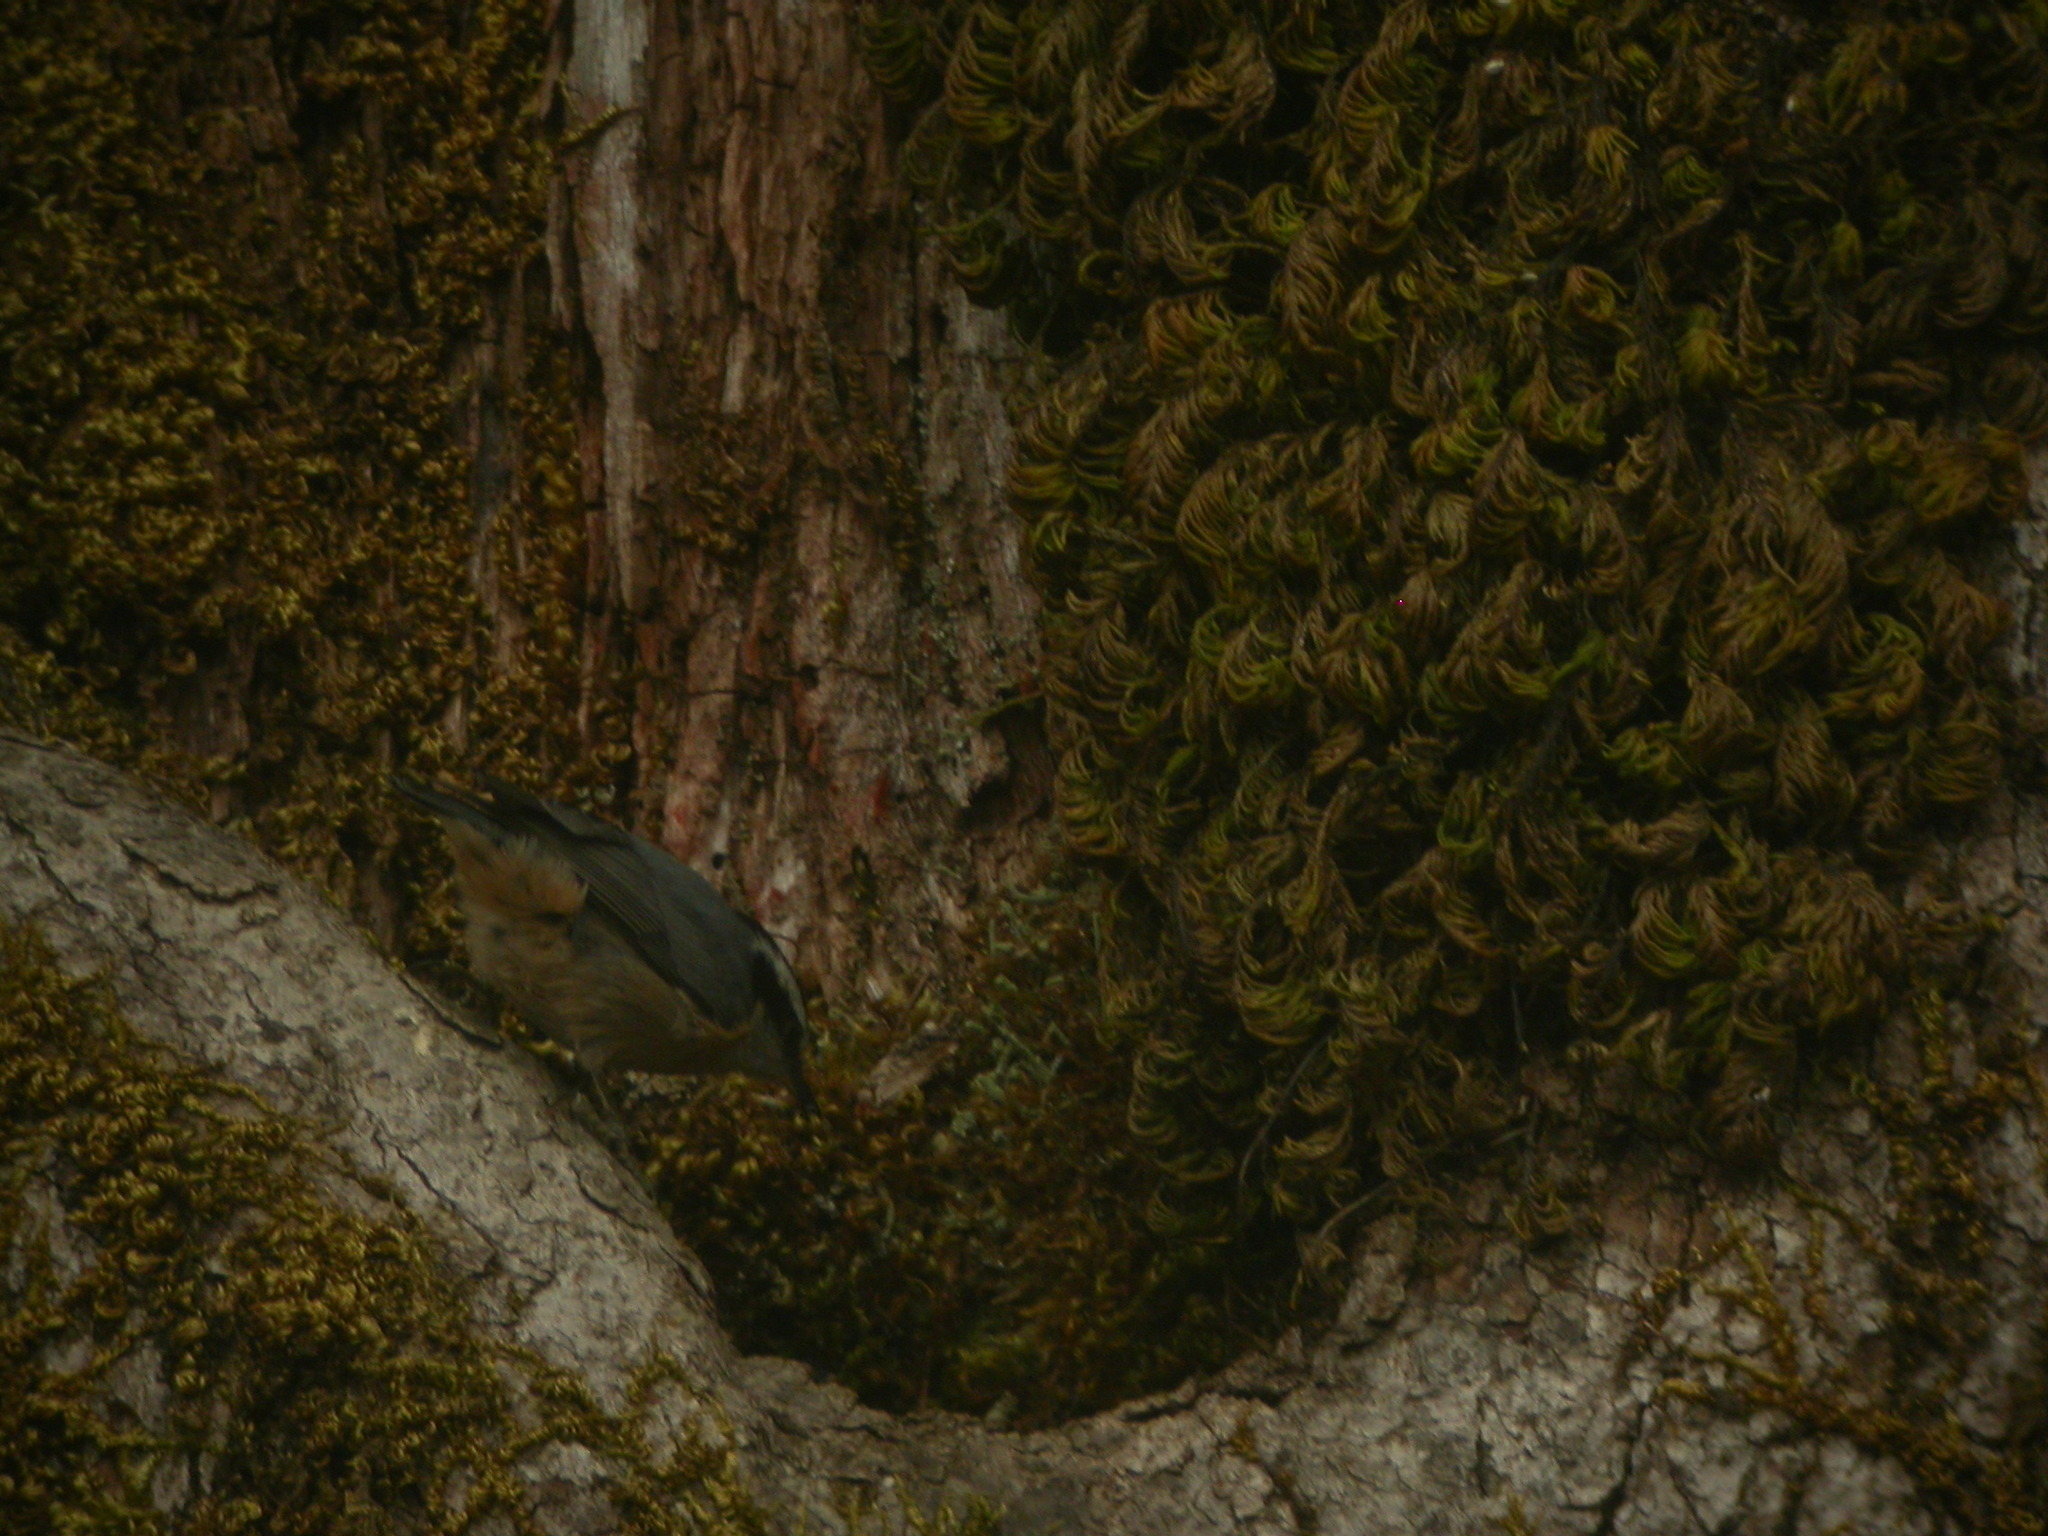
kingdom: Animalia
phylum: Chordata
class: Aves
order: Passeriformes
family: Sittidae
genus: Sitta
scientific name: Sitta canadensis
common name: Red-breasted nuthatch
